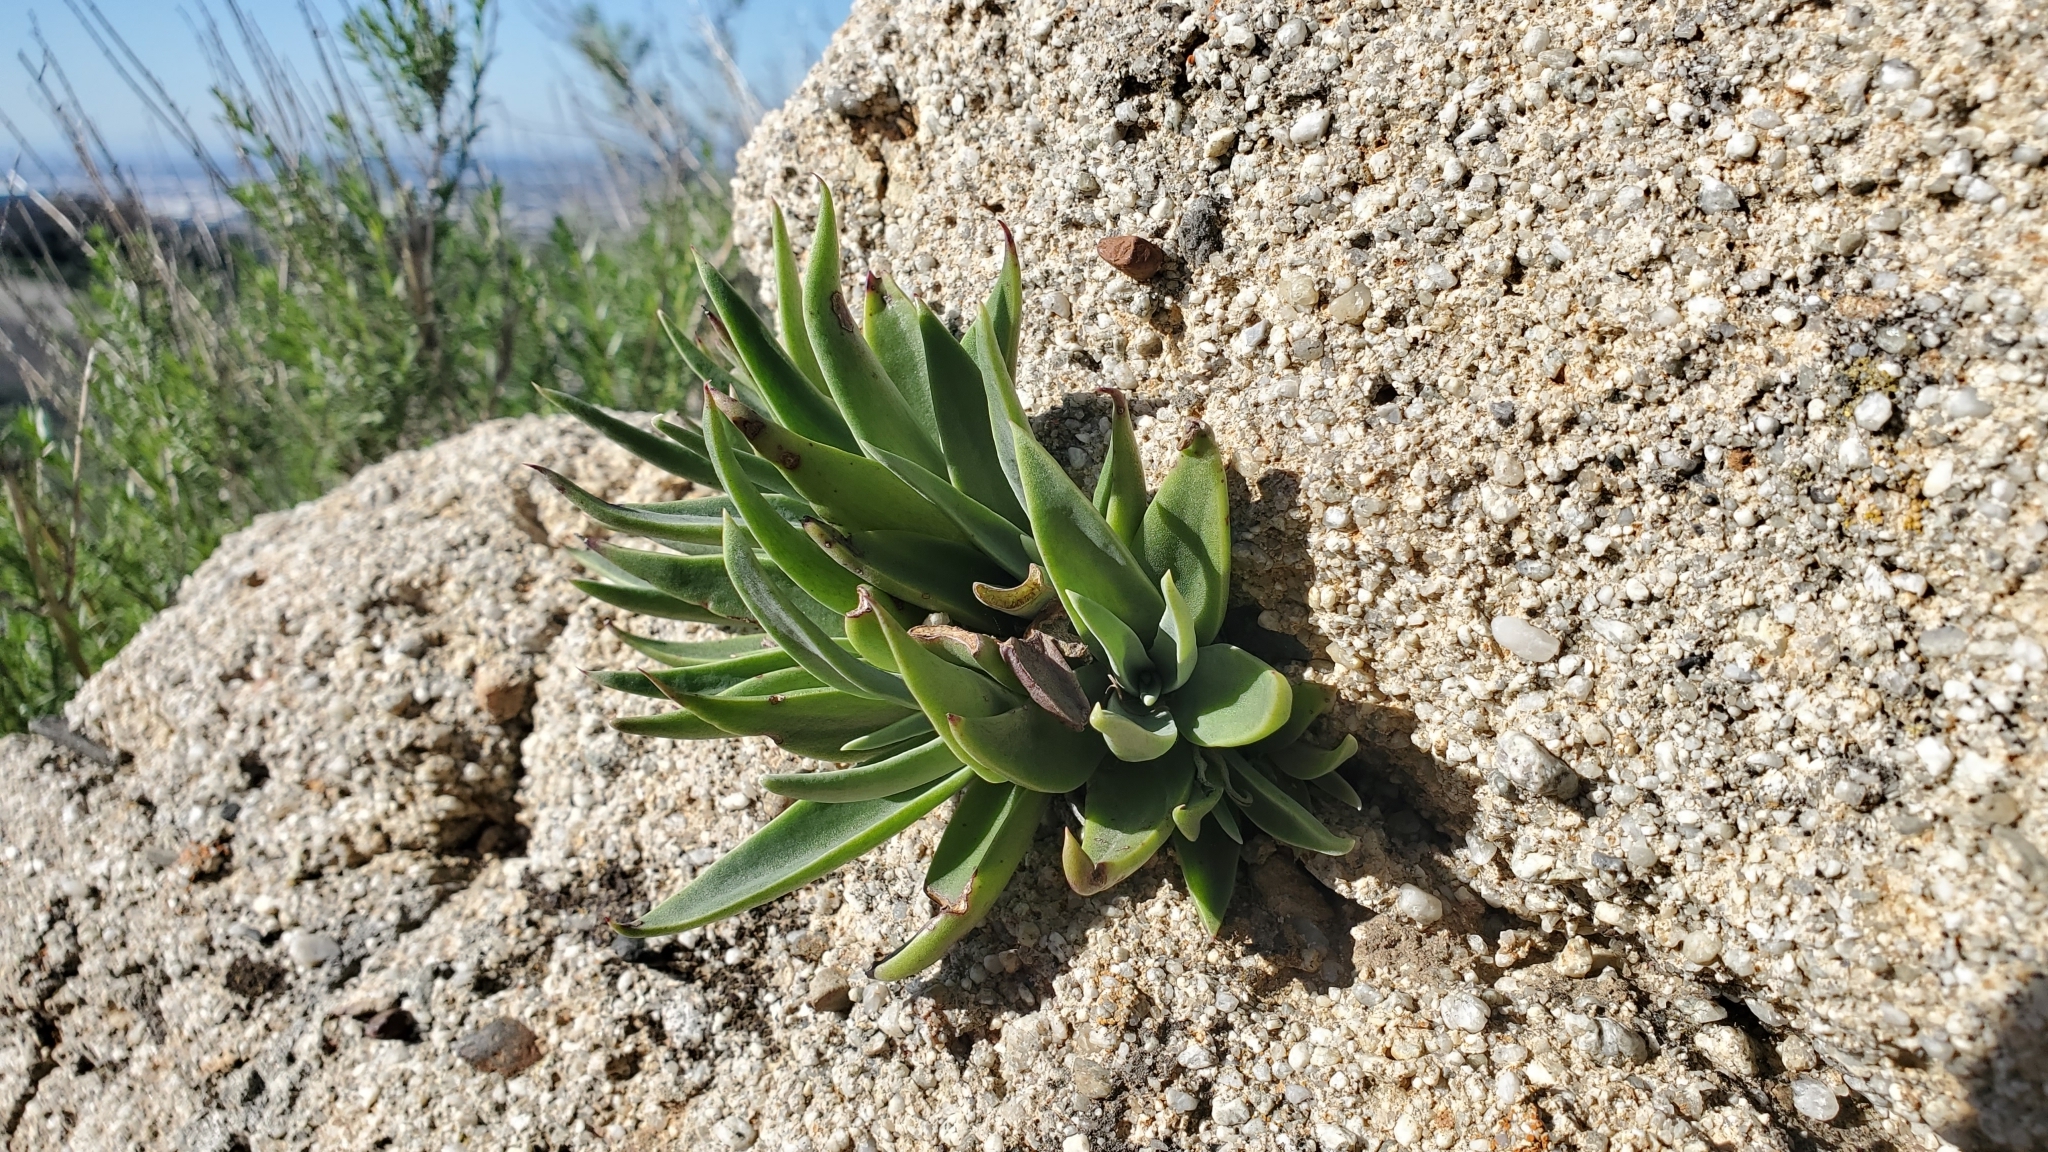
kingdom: Plantae
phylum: Tracheophyta
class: Magnoliopsida
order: Saxifragales
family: Crassulaceae
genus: Dudleya
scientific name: Dudleya lanceolata
